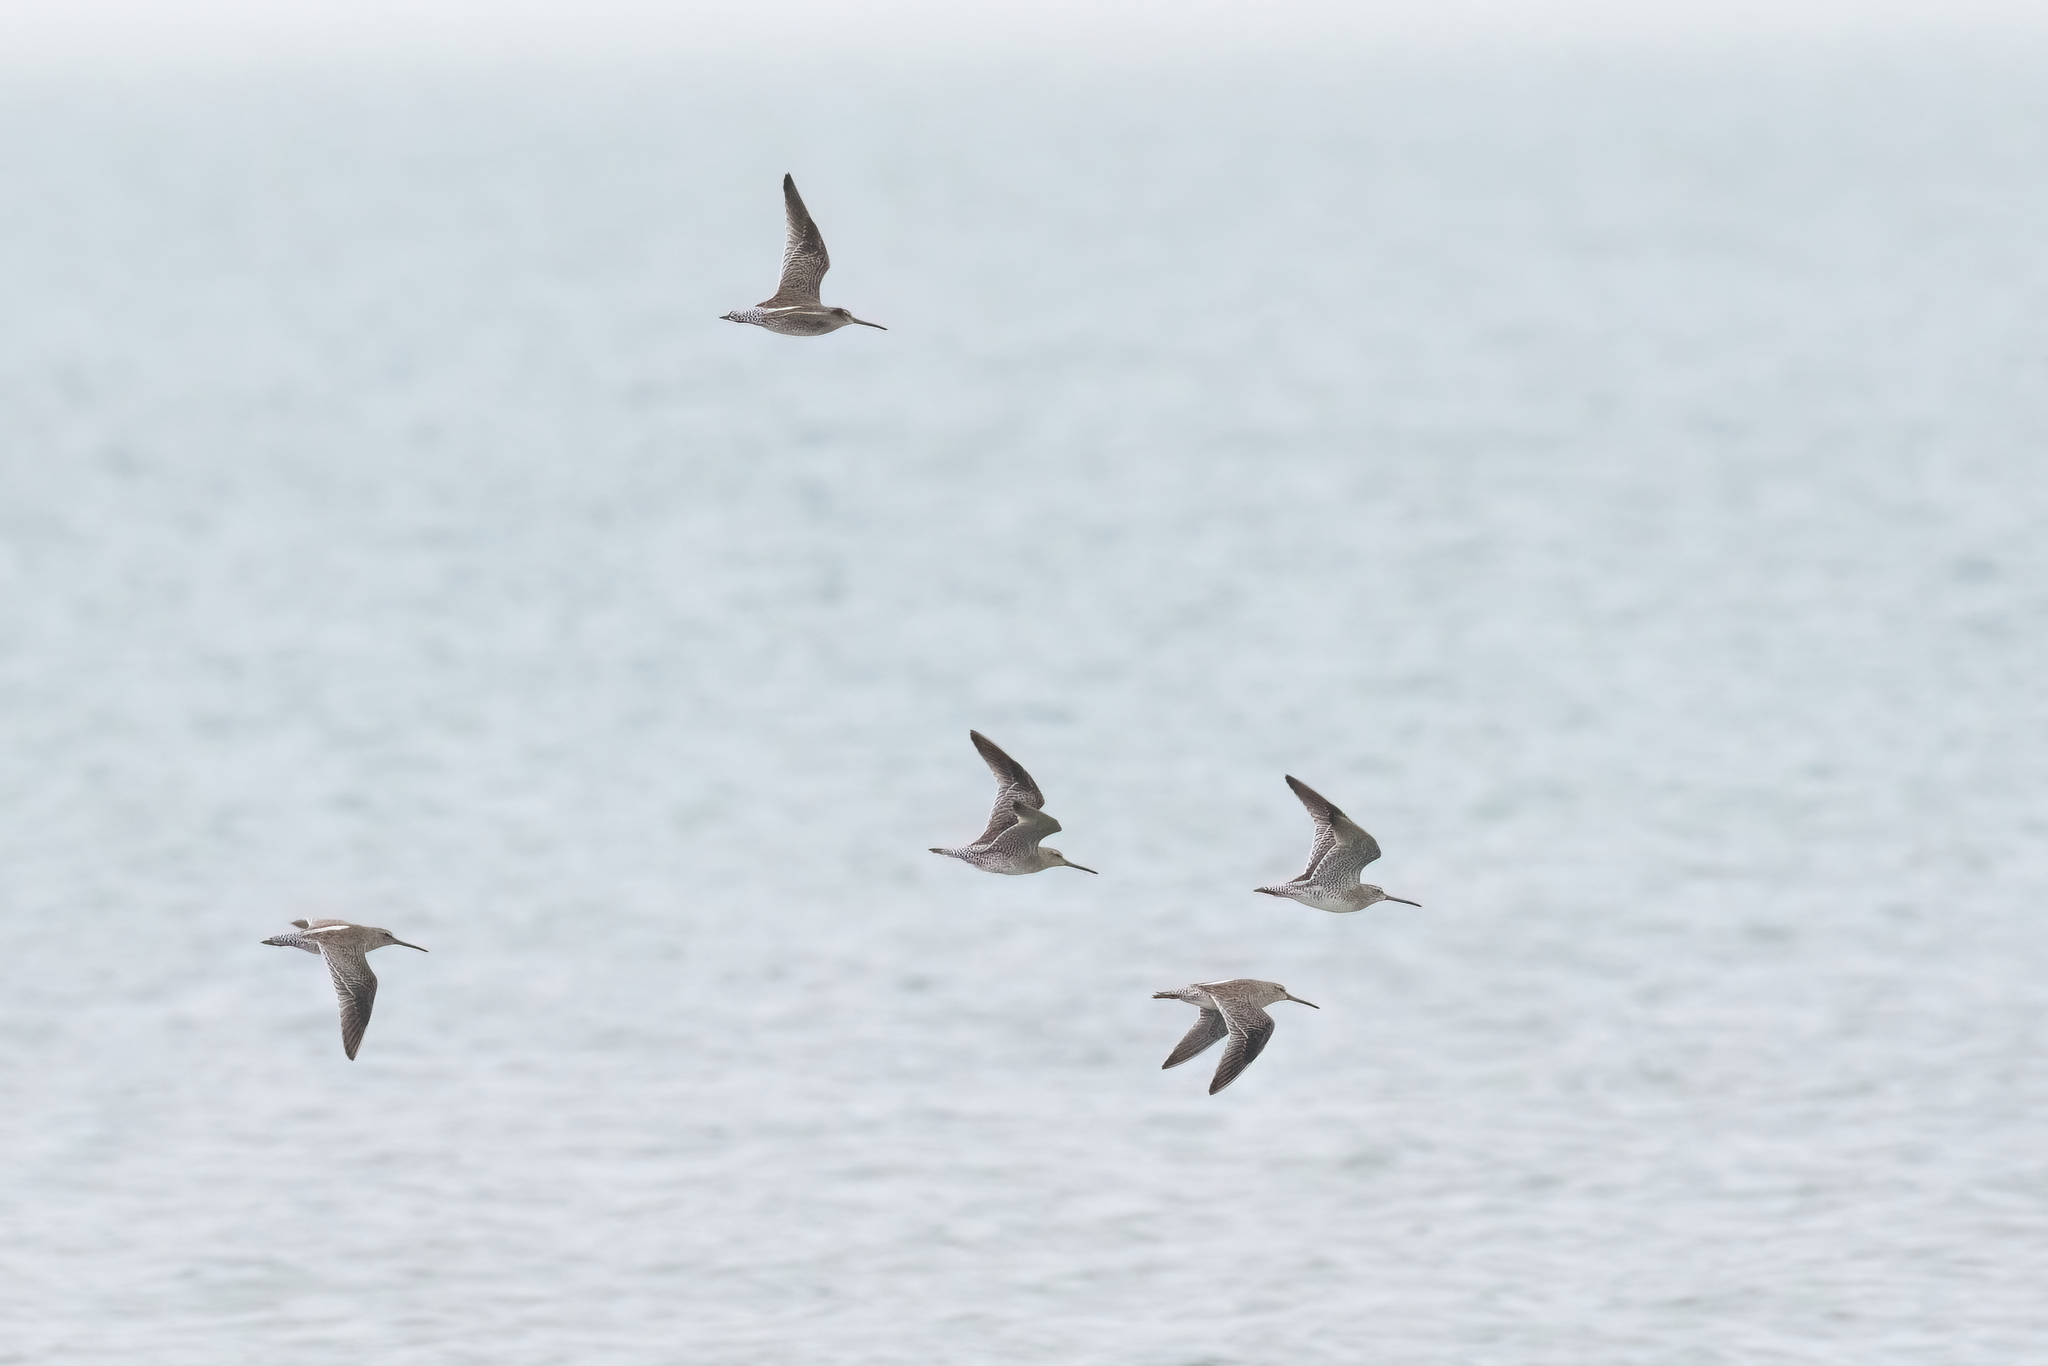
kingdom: Animalia
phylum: Chordata
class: Aves
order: Charadriiformes
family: Scolopacidae
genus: Limnodromus
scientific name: Limnodromus scolopaceus
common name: Long-billed dowitcher
